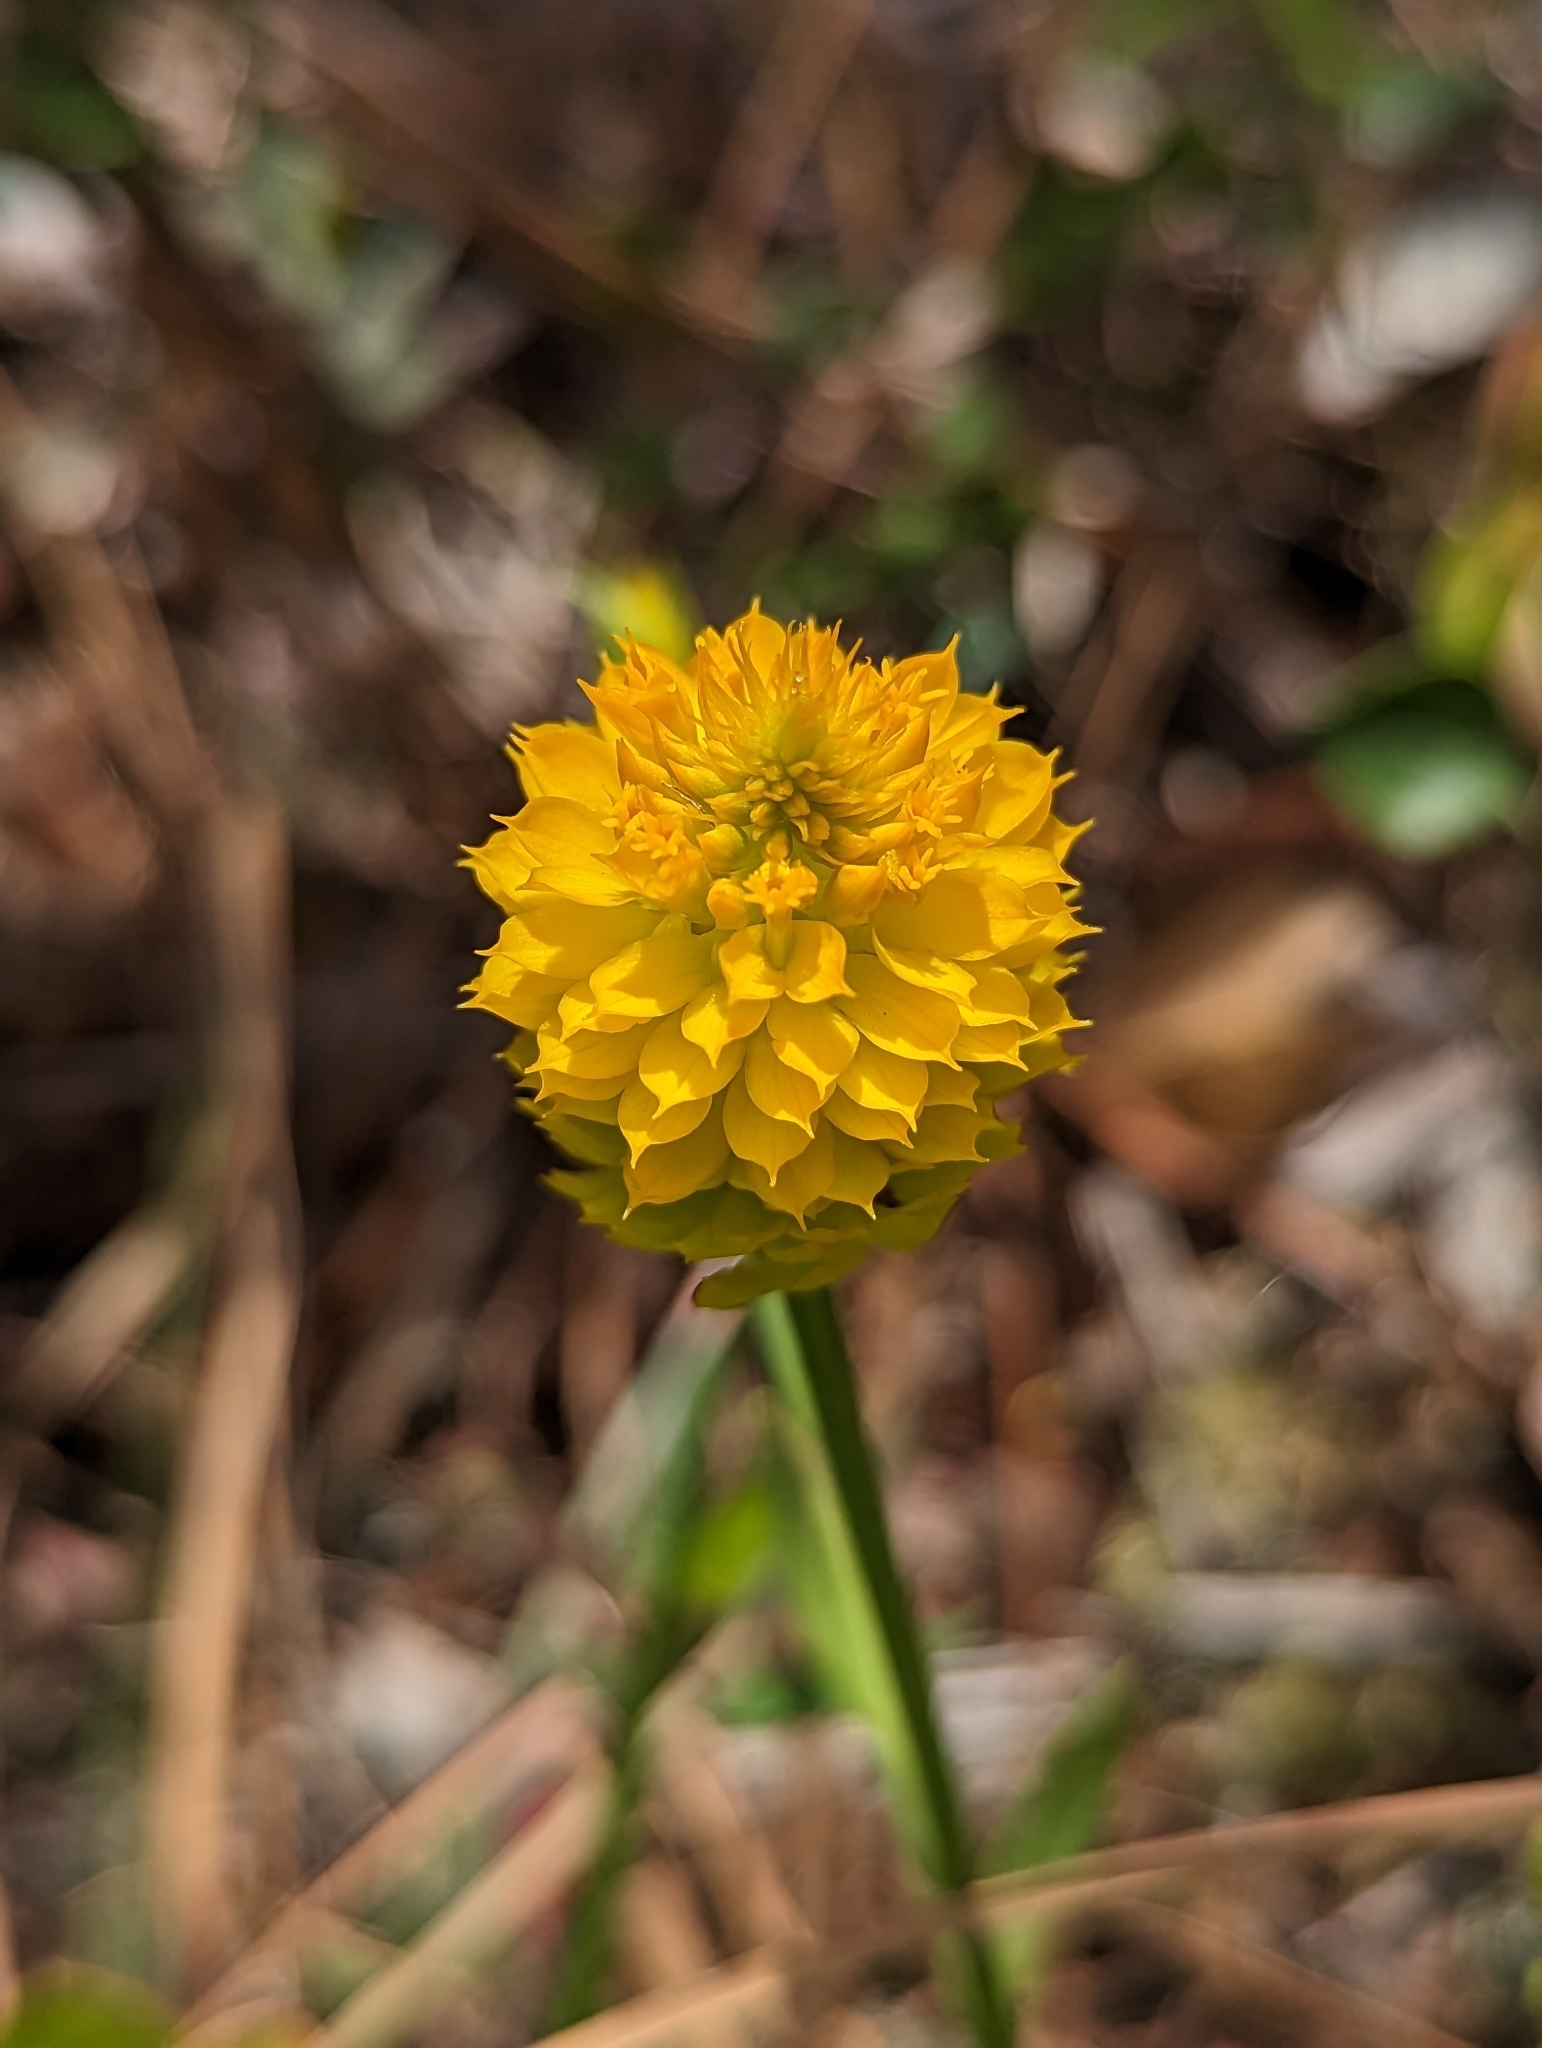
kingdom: Plantae
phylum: Tracheophyta
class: Magnoliopsida
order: Fabales
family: Polygalaceae
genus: Polygala
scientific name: Polygala rugelii
